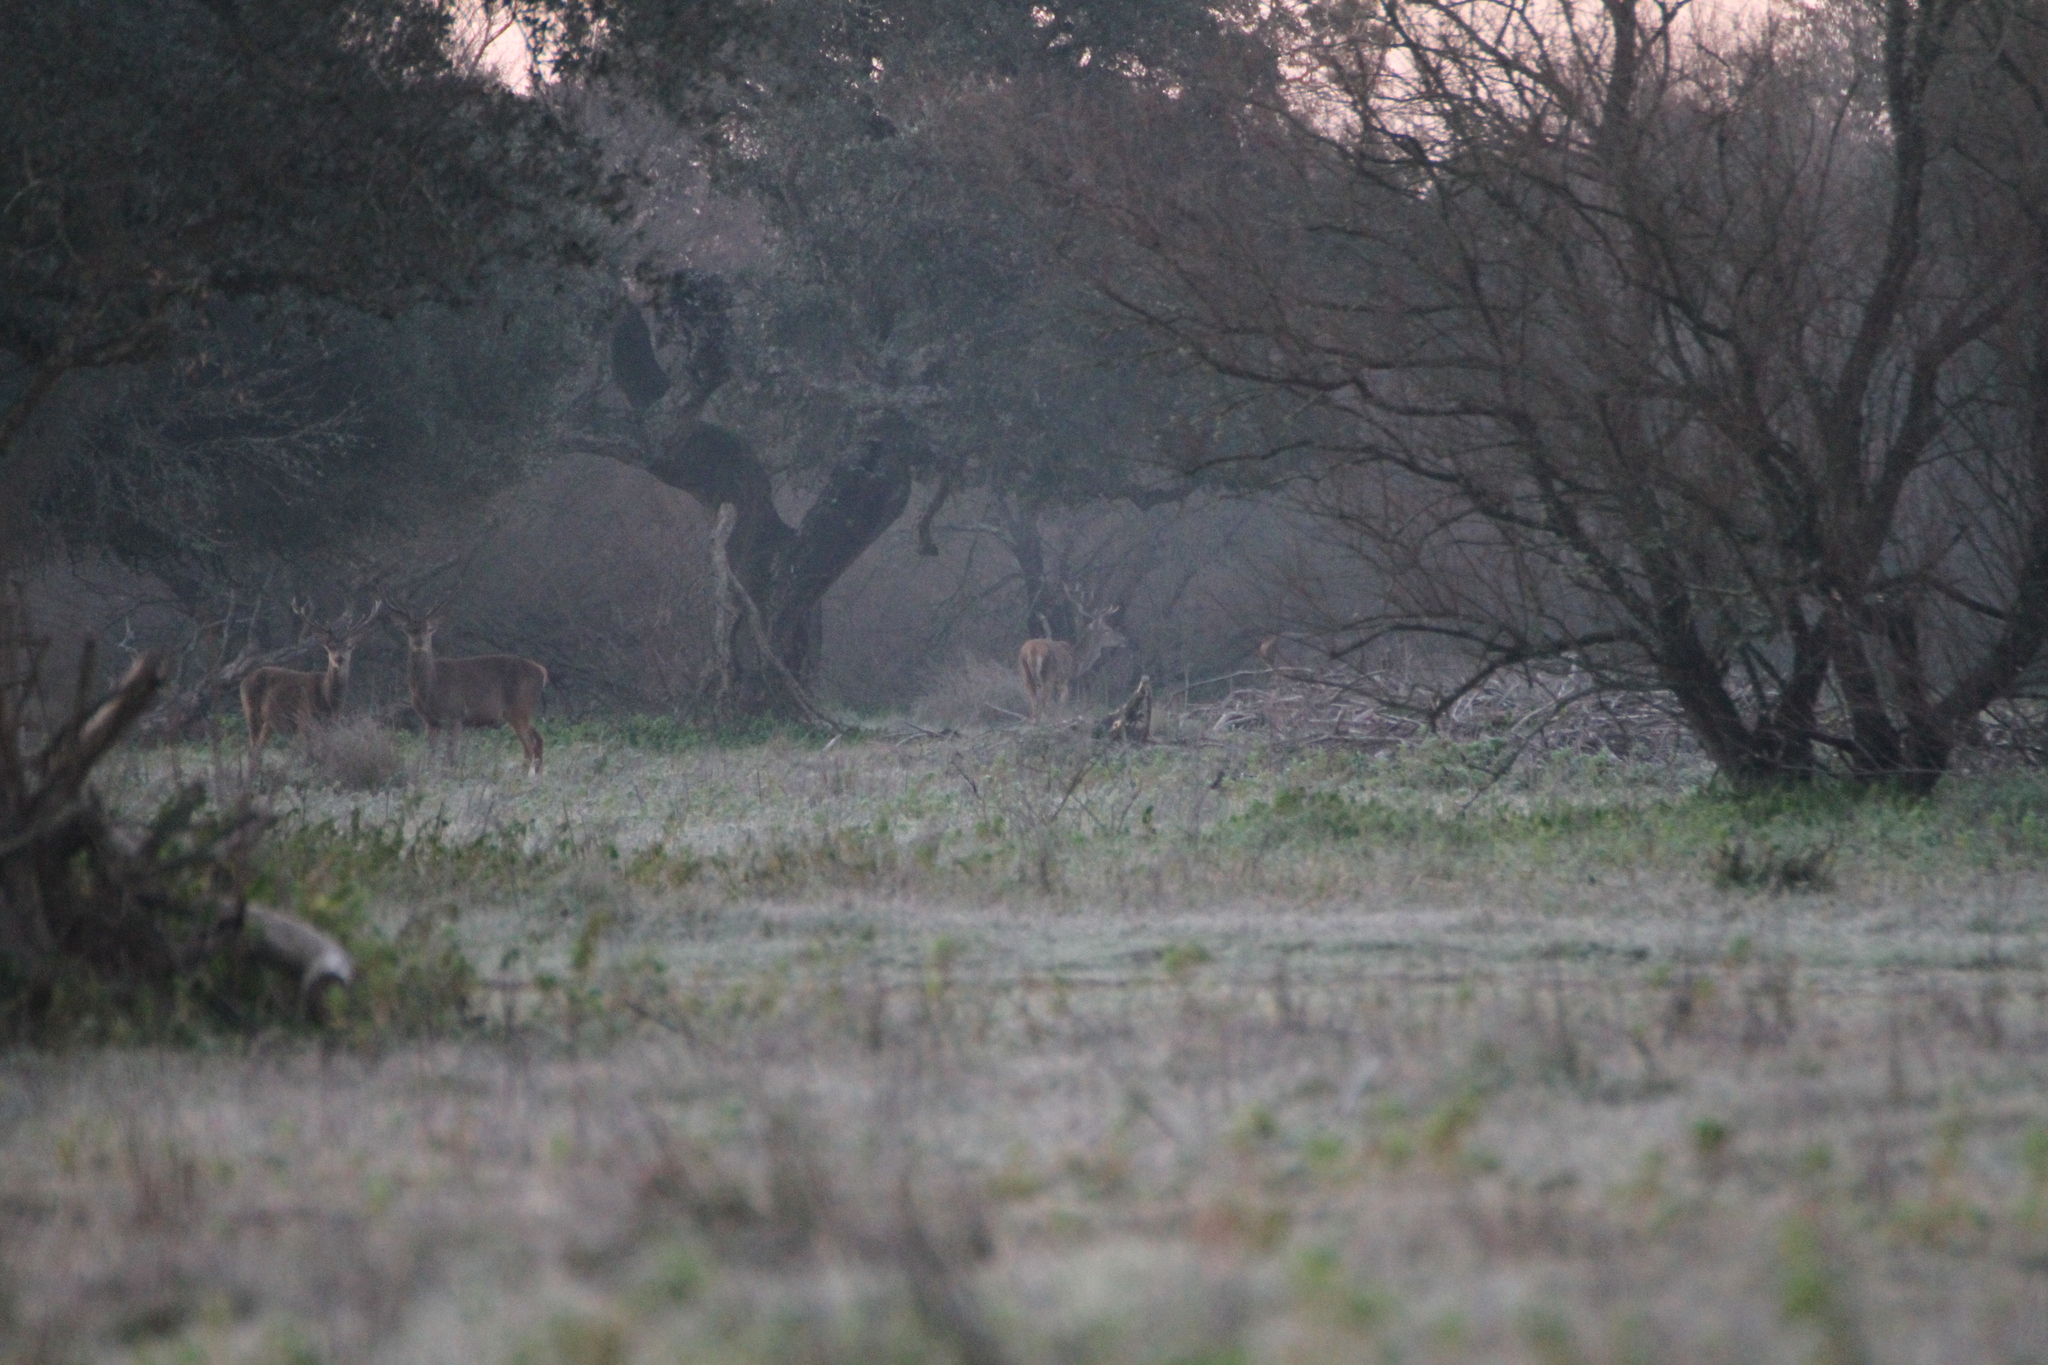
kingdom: Animalia
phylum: Chordata
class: Mammalia
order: Artiodactyla
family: Cervidae
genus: Cervus
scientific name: Cervus elaphus
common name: Red deer
